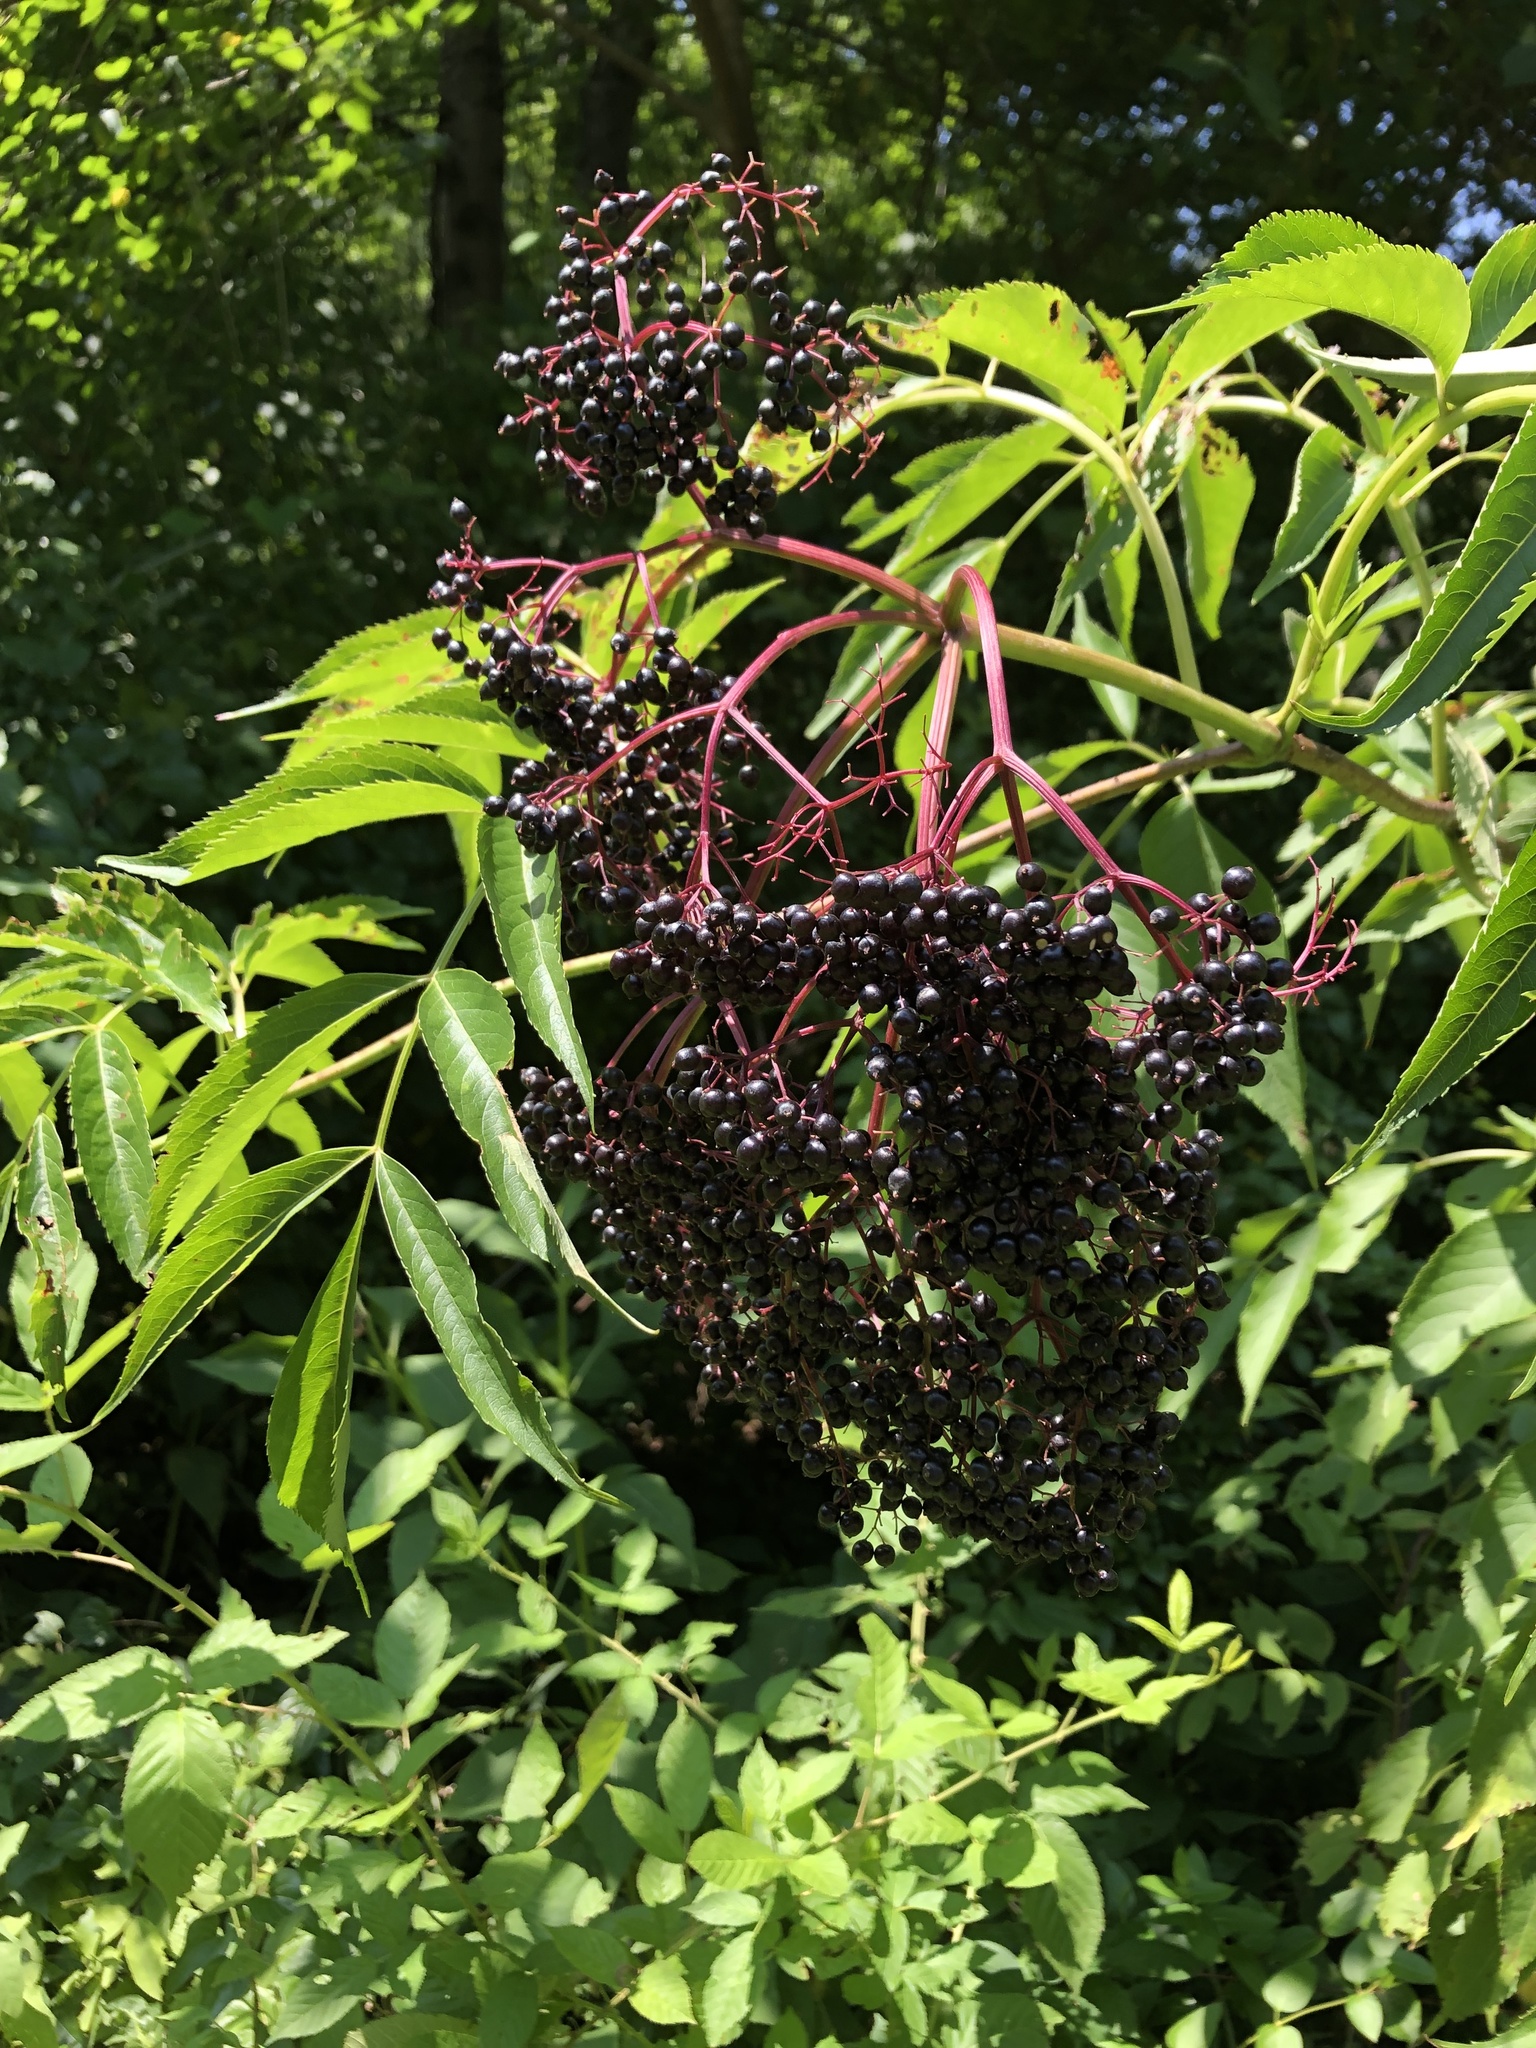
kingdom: Plantae
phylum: Tracheophyta
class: Magnoliopsida
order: Dipsacales
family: Viburnaceae
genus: Sambucus
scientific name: Sambucus canadensis
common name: American elder
